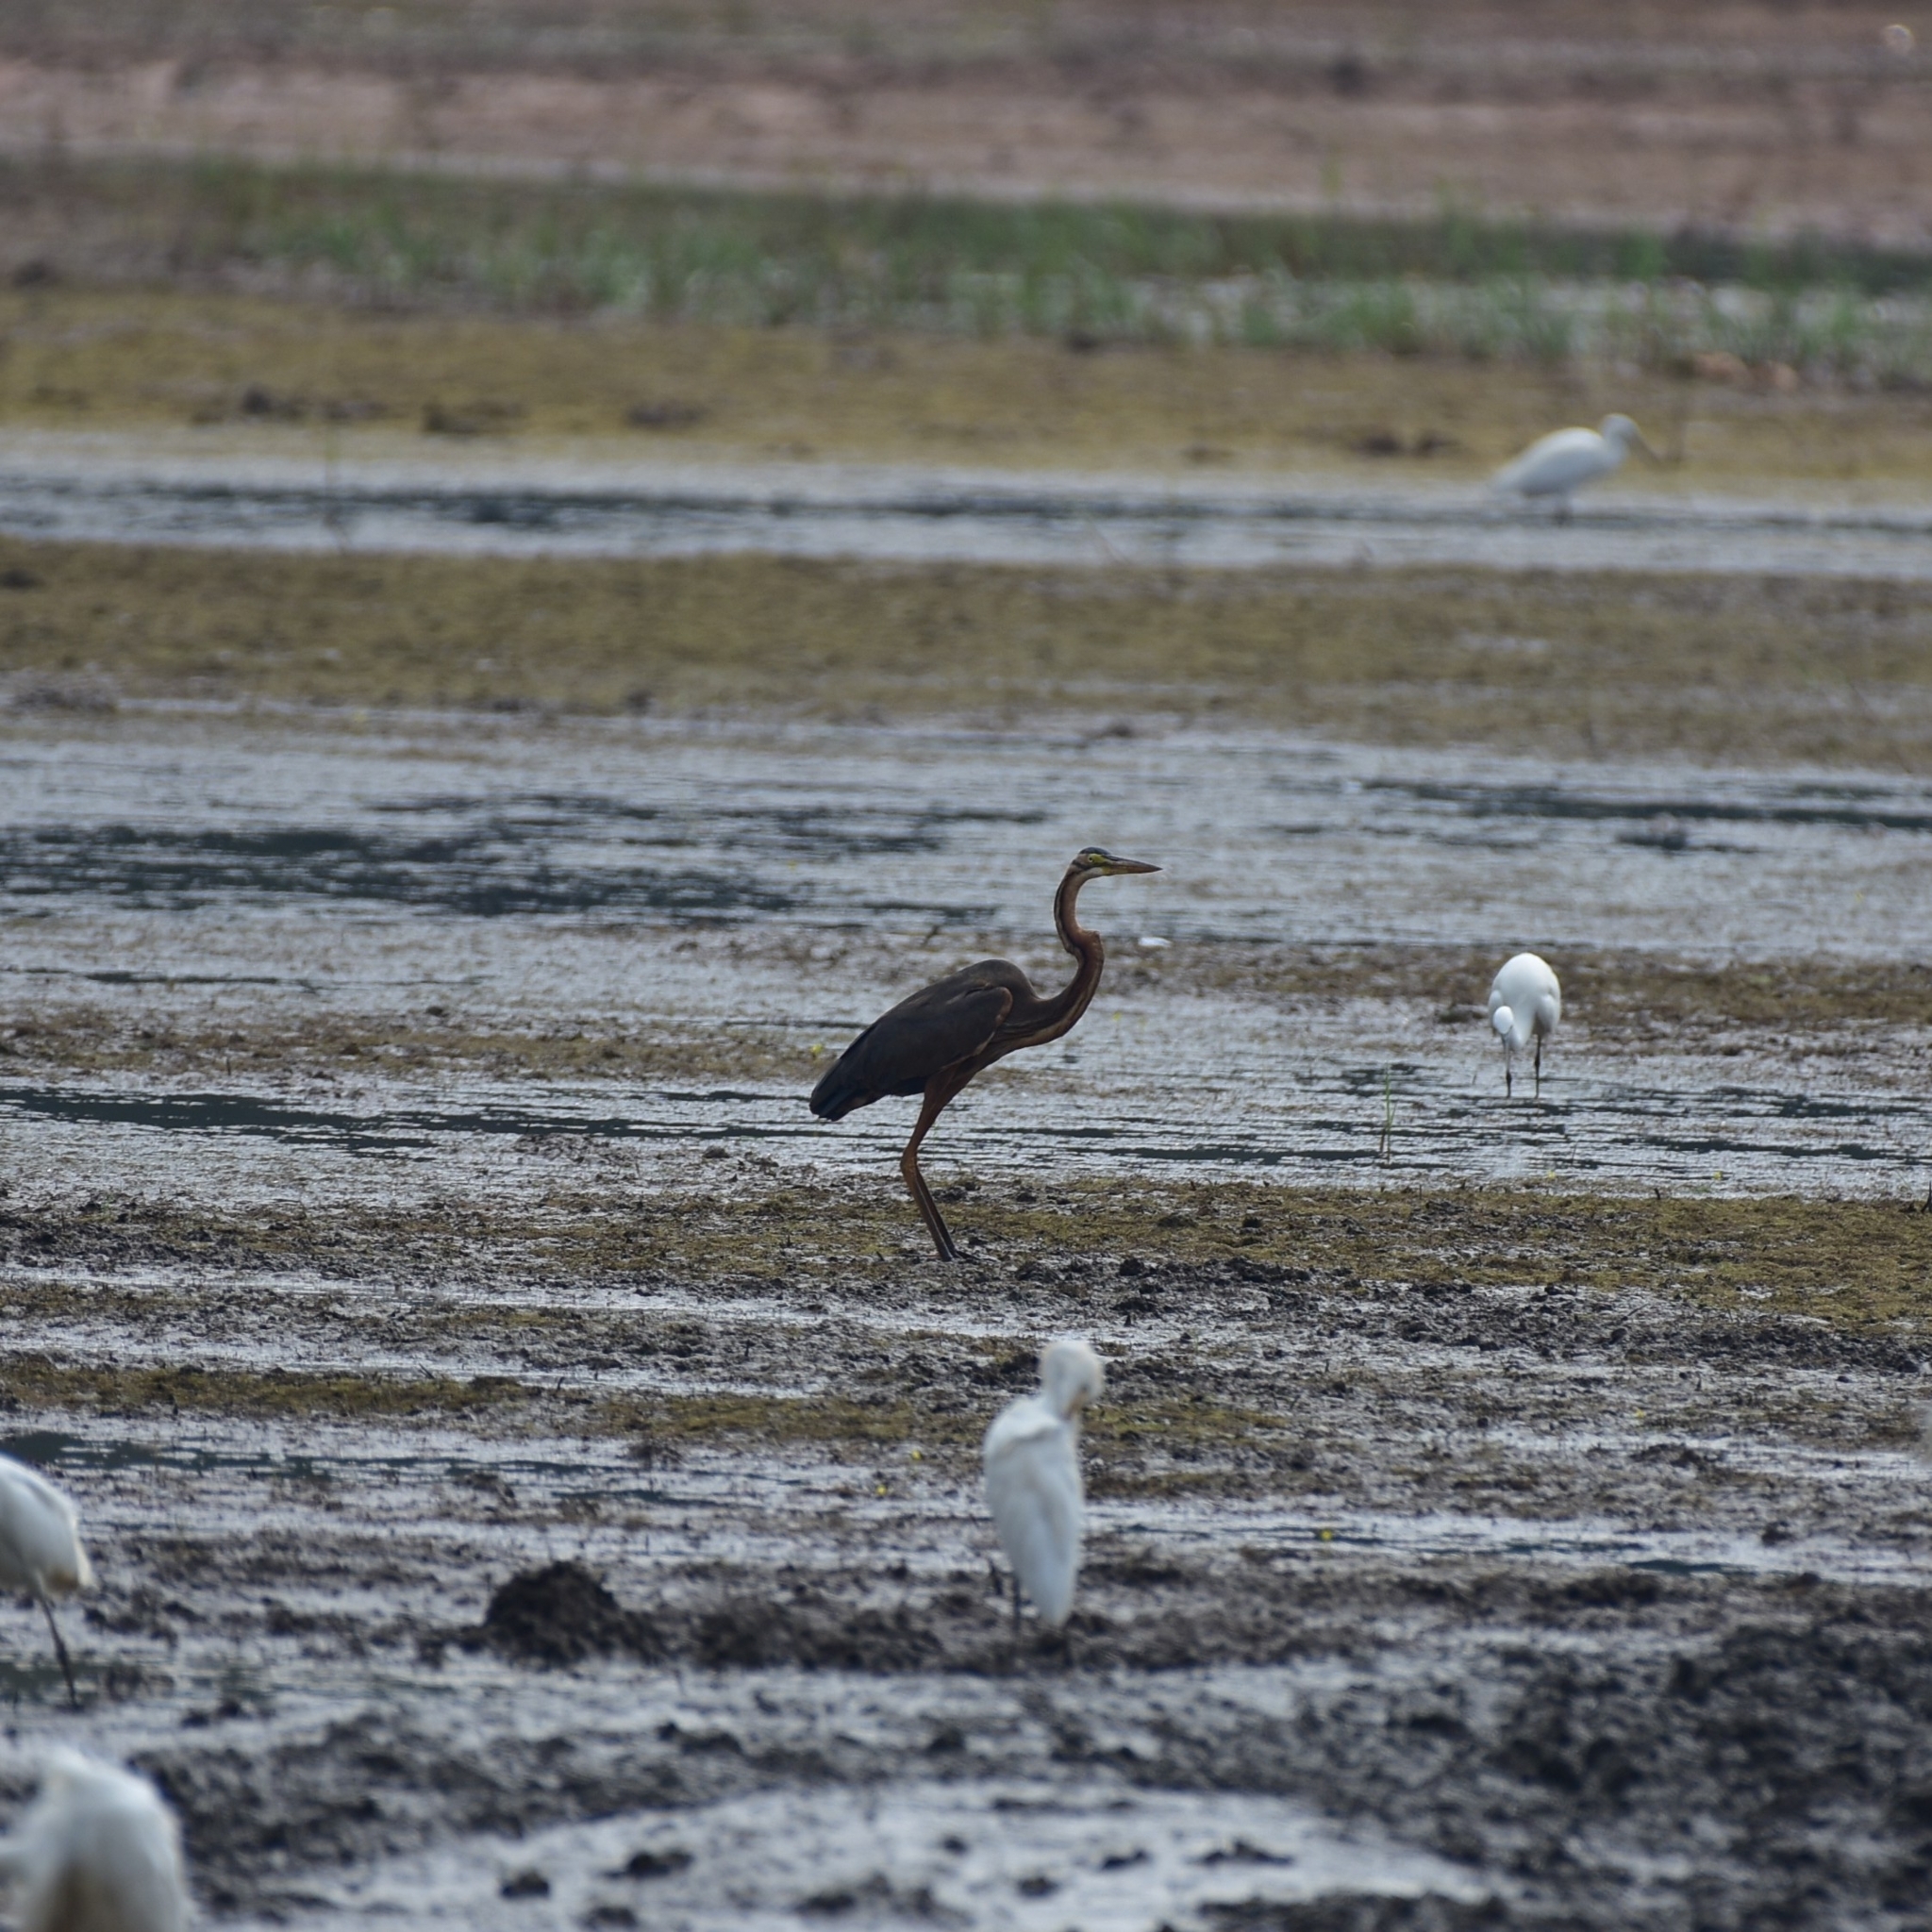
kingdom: Animalia
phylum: Chordata
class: Aves
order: Pelecaniformes
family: Ardeidae
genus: Ardea
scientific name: Ardea purpurea
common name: Purple heron
